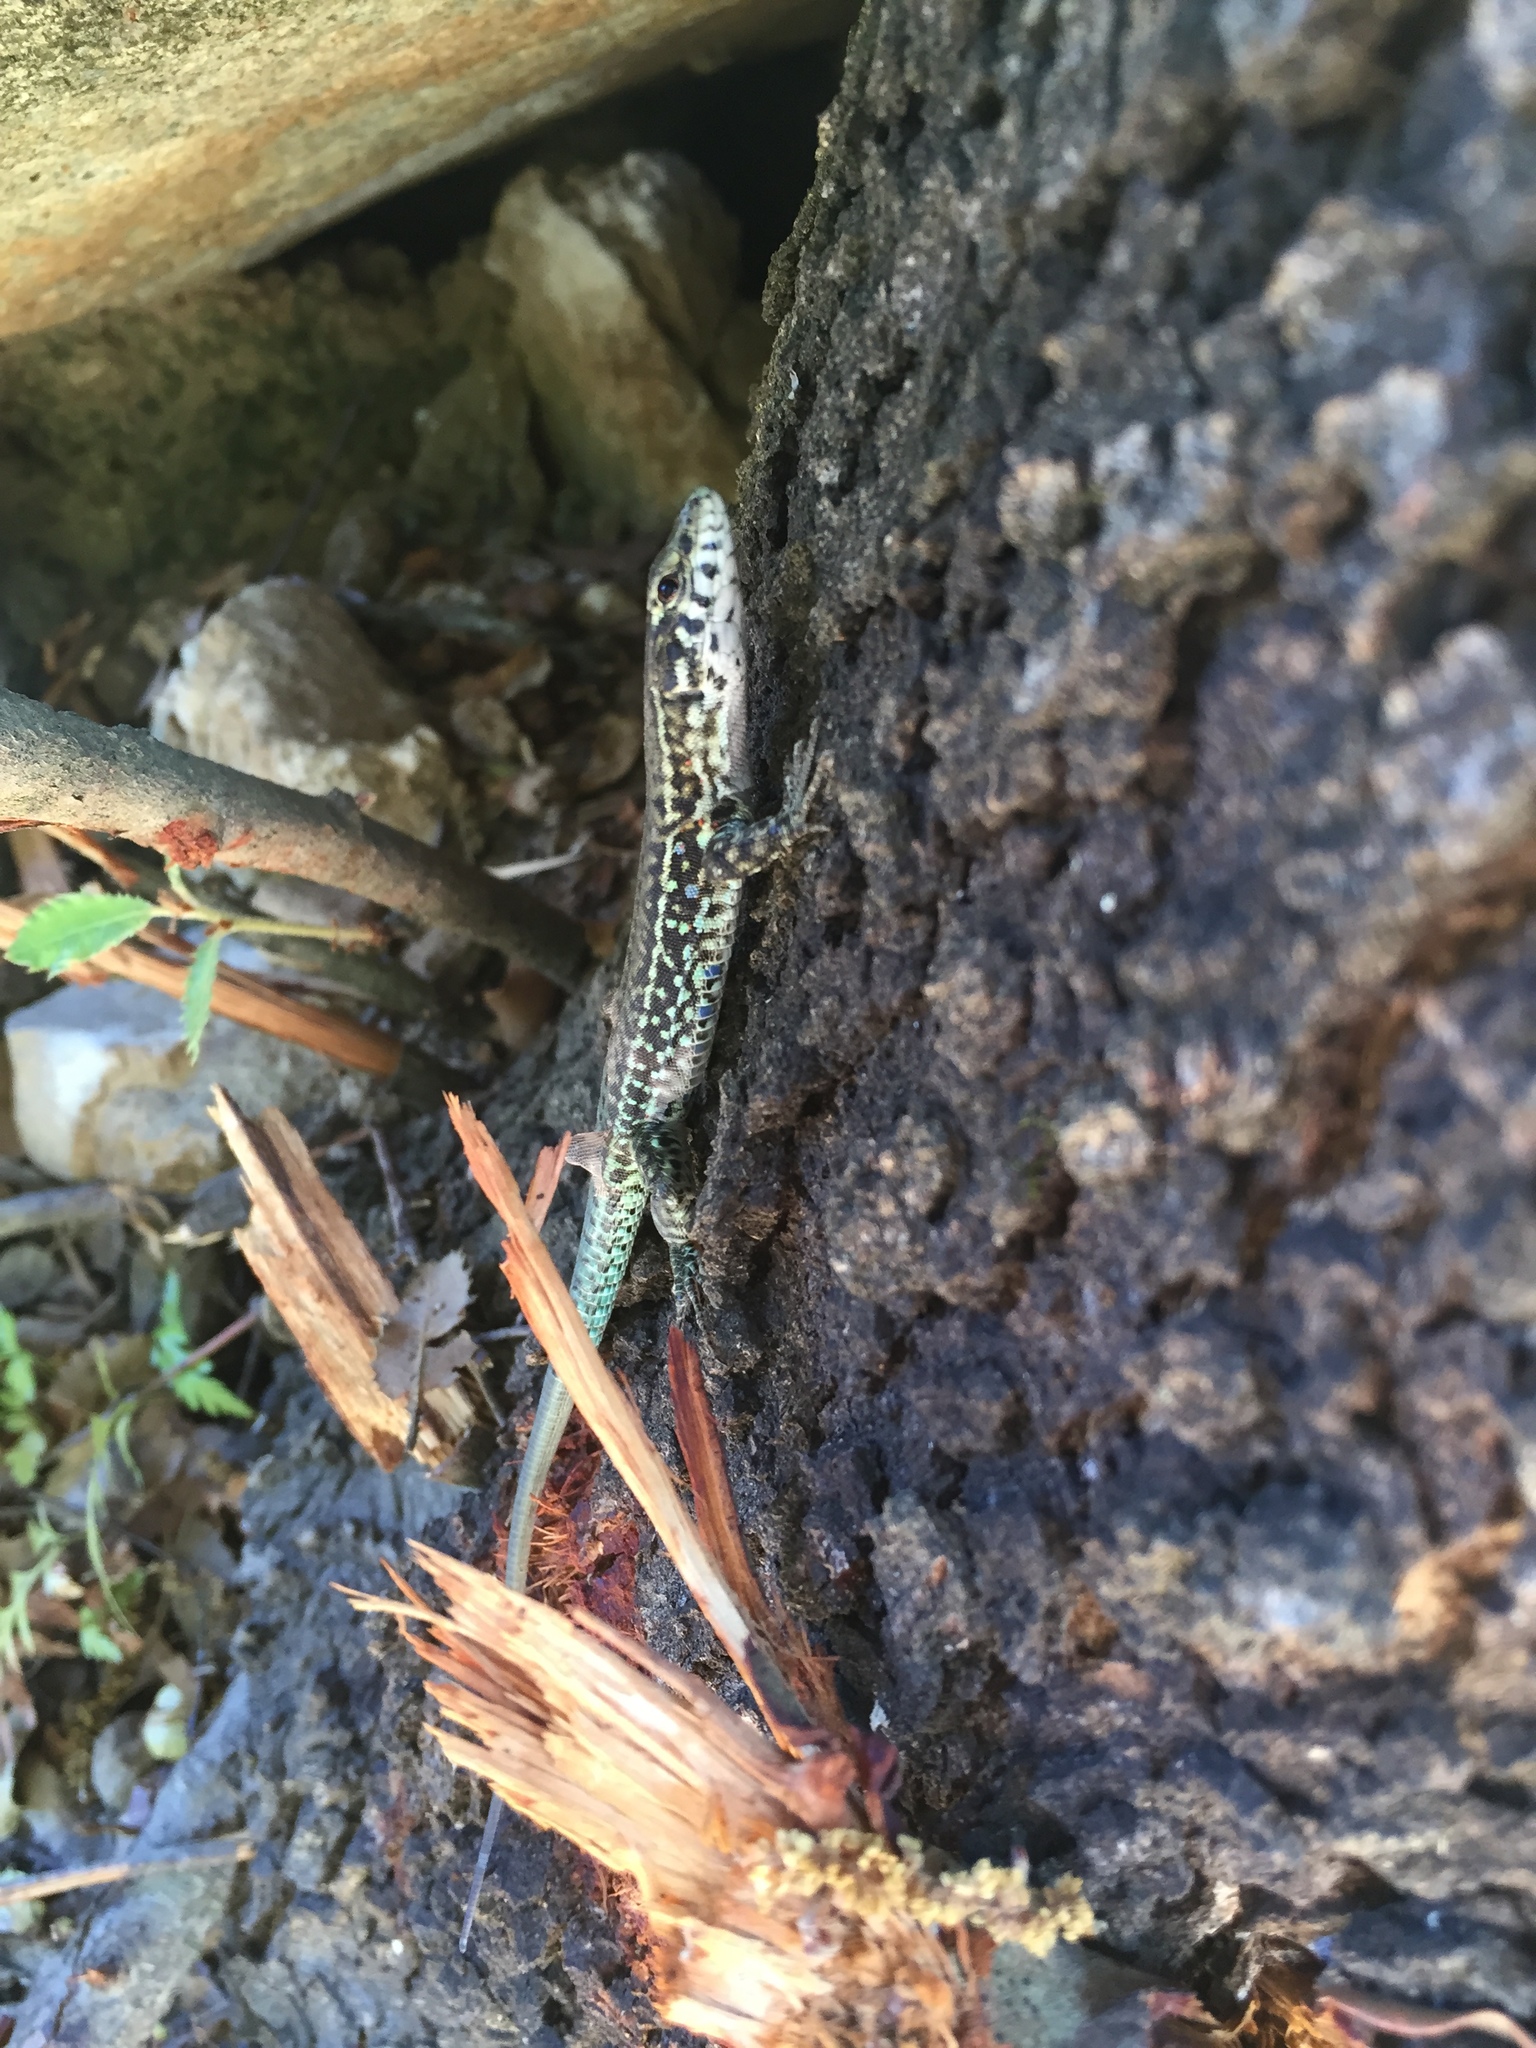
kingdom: Animalia
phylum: Chordata
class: Squamata
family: Lacertidae
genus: Podarcis
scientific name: Podarcis tiliguerta
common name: Tyrrhenian wall lizard
